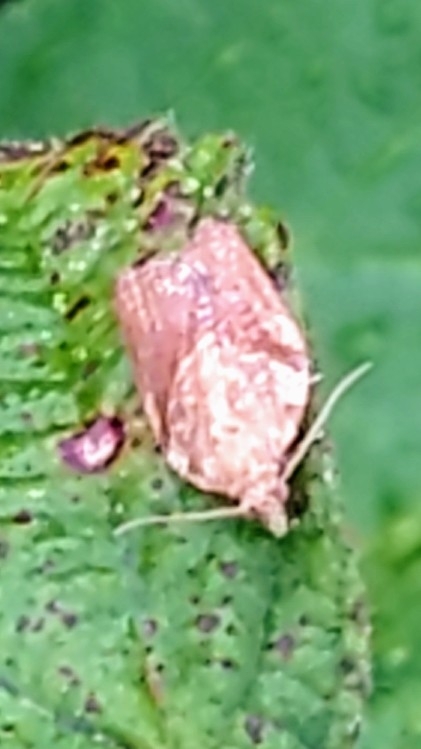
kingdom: Animalia
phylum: Arthropoda
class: Insecta
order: Lepidoptera
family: Tortricidae
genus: Epiphyas
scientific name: Epiphyas postvittana
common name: Light brown apple moth
